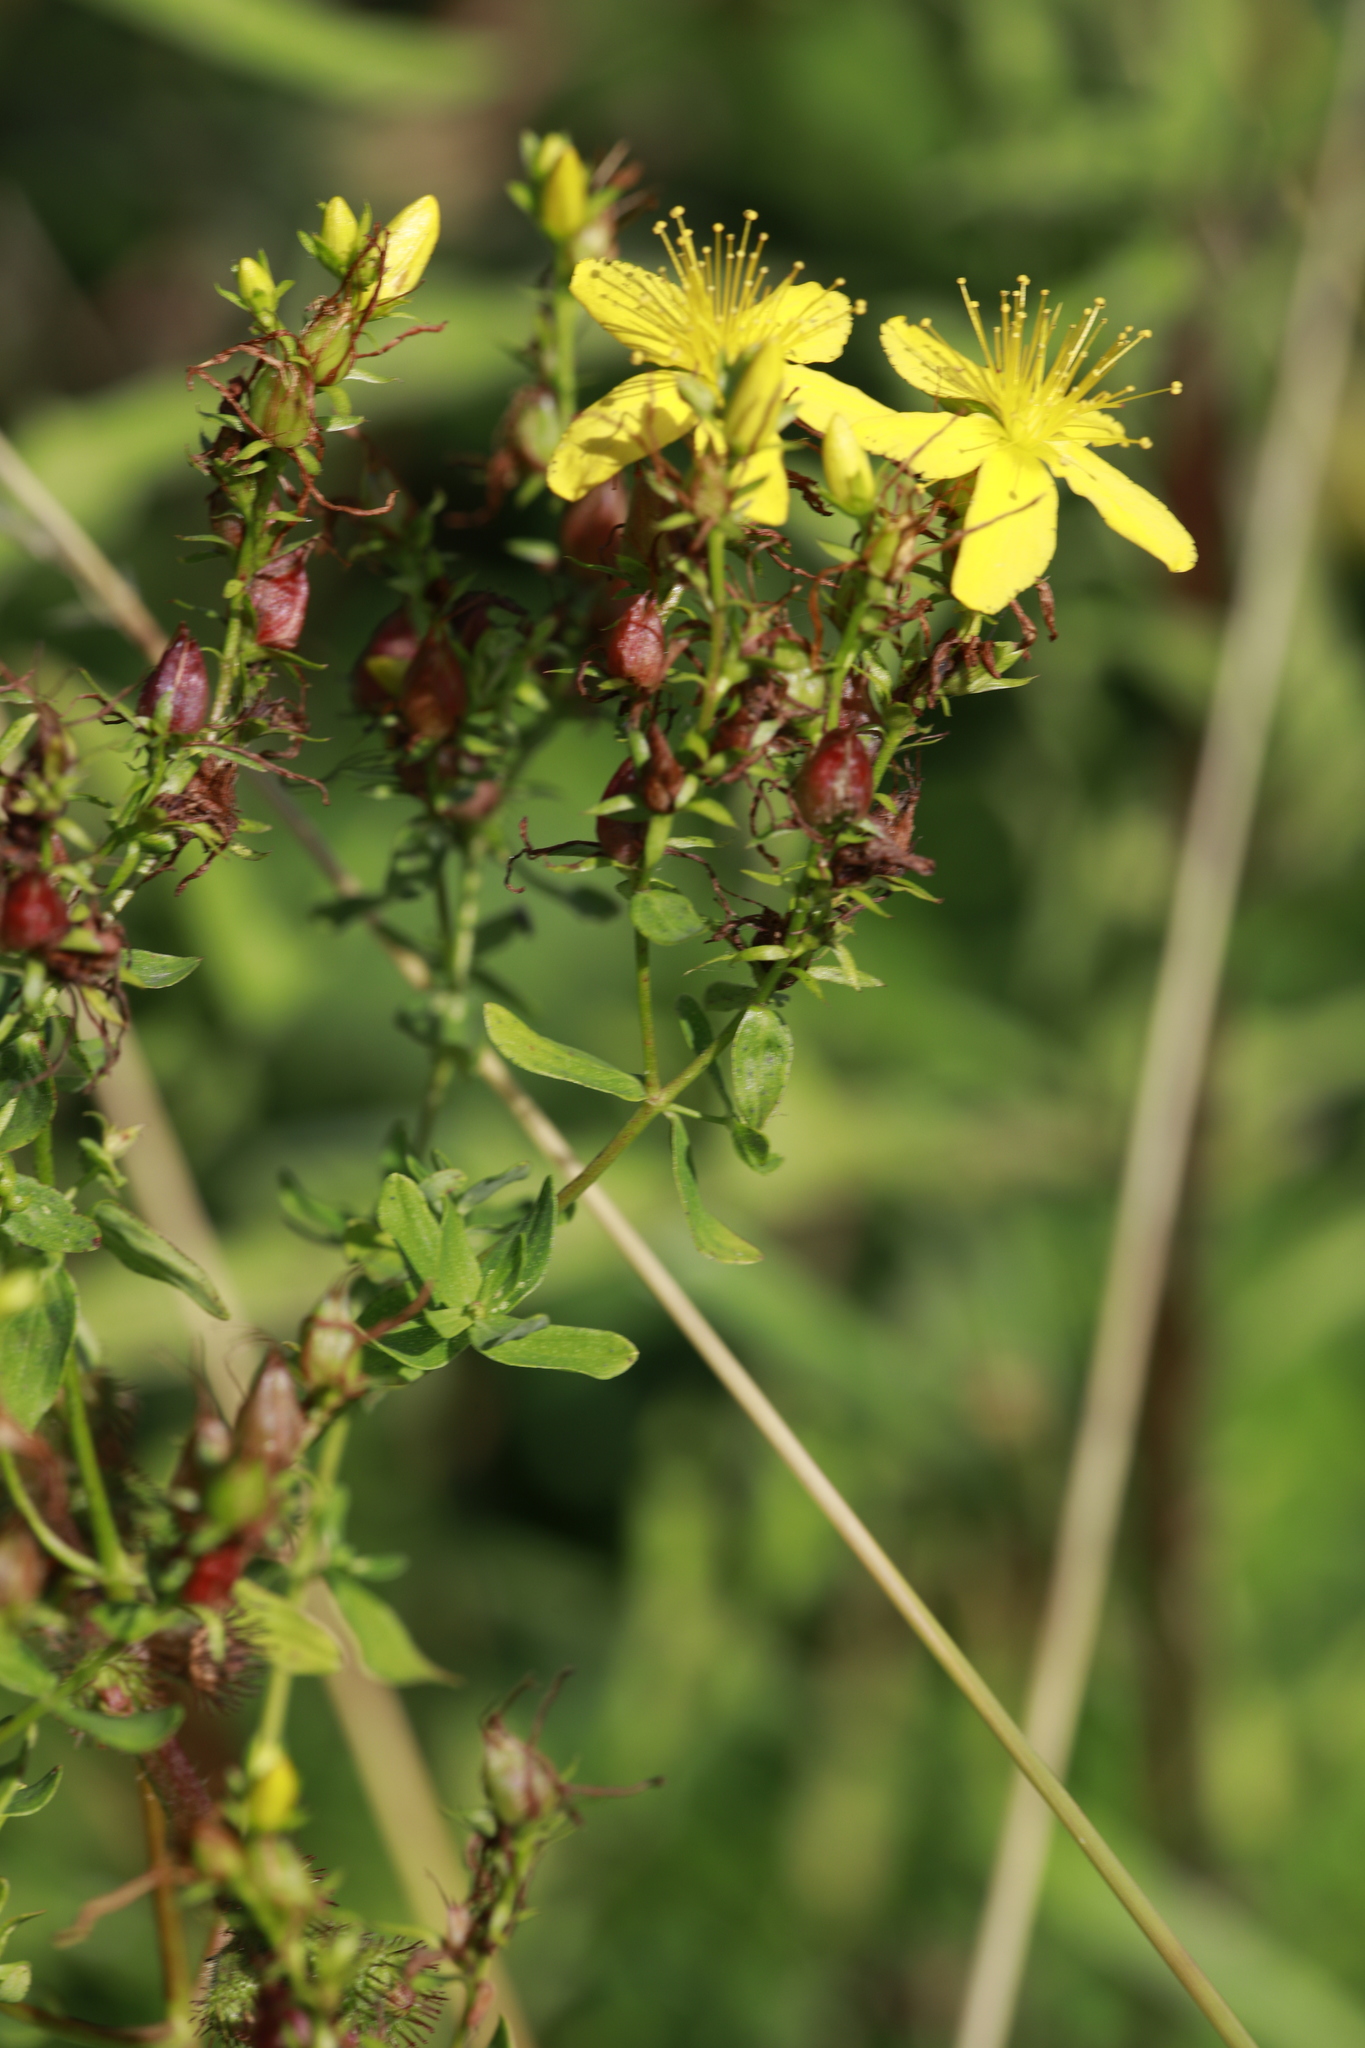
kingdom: Plantae
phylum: Tracheophyta
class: Magnoliopsida
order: Malpighiales
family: Hypericaceae
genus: Hypericum
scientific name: Hypericum perforatum
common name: Common st. johnswort
